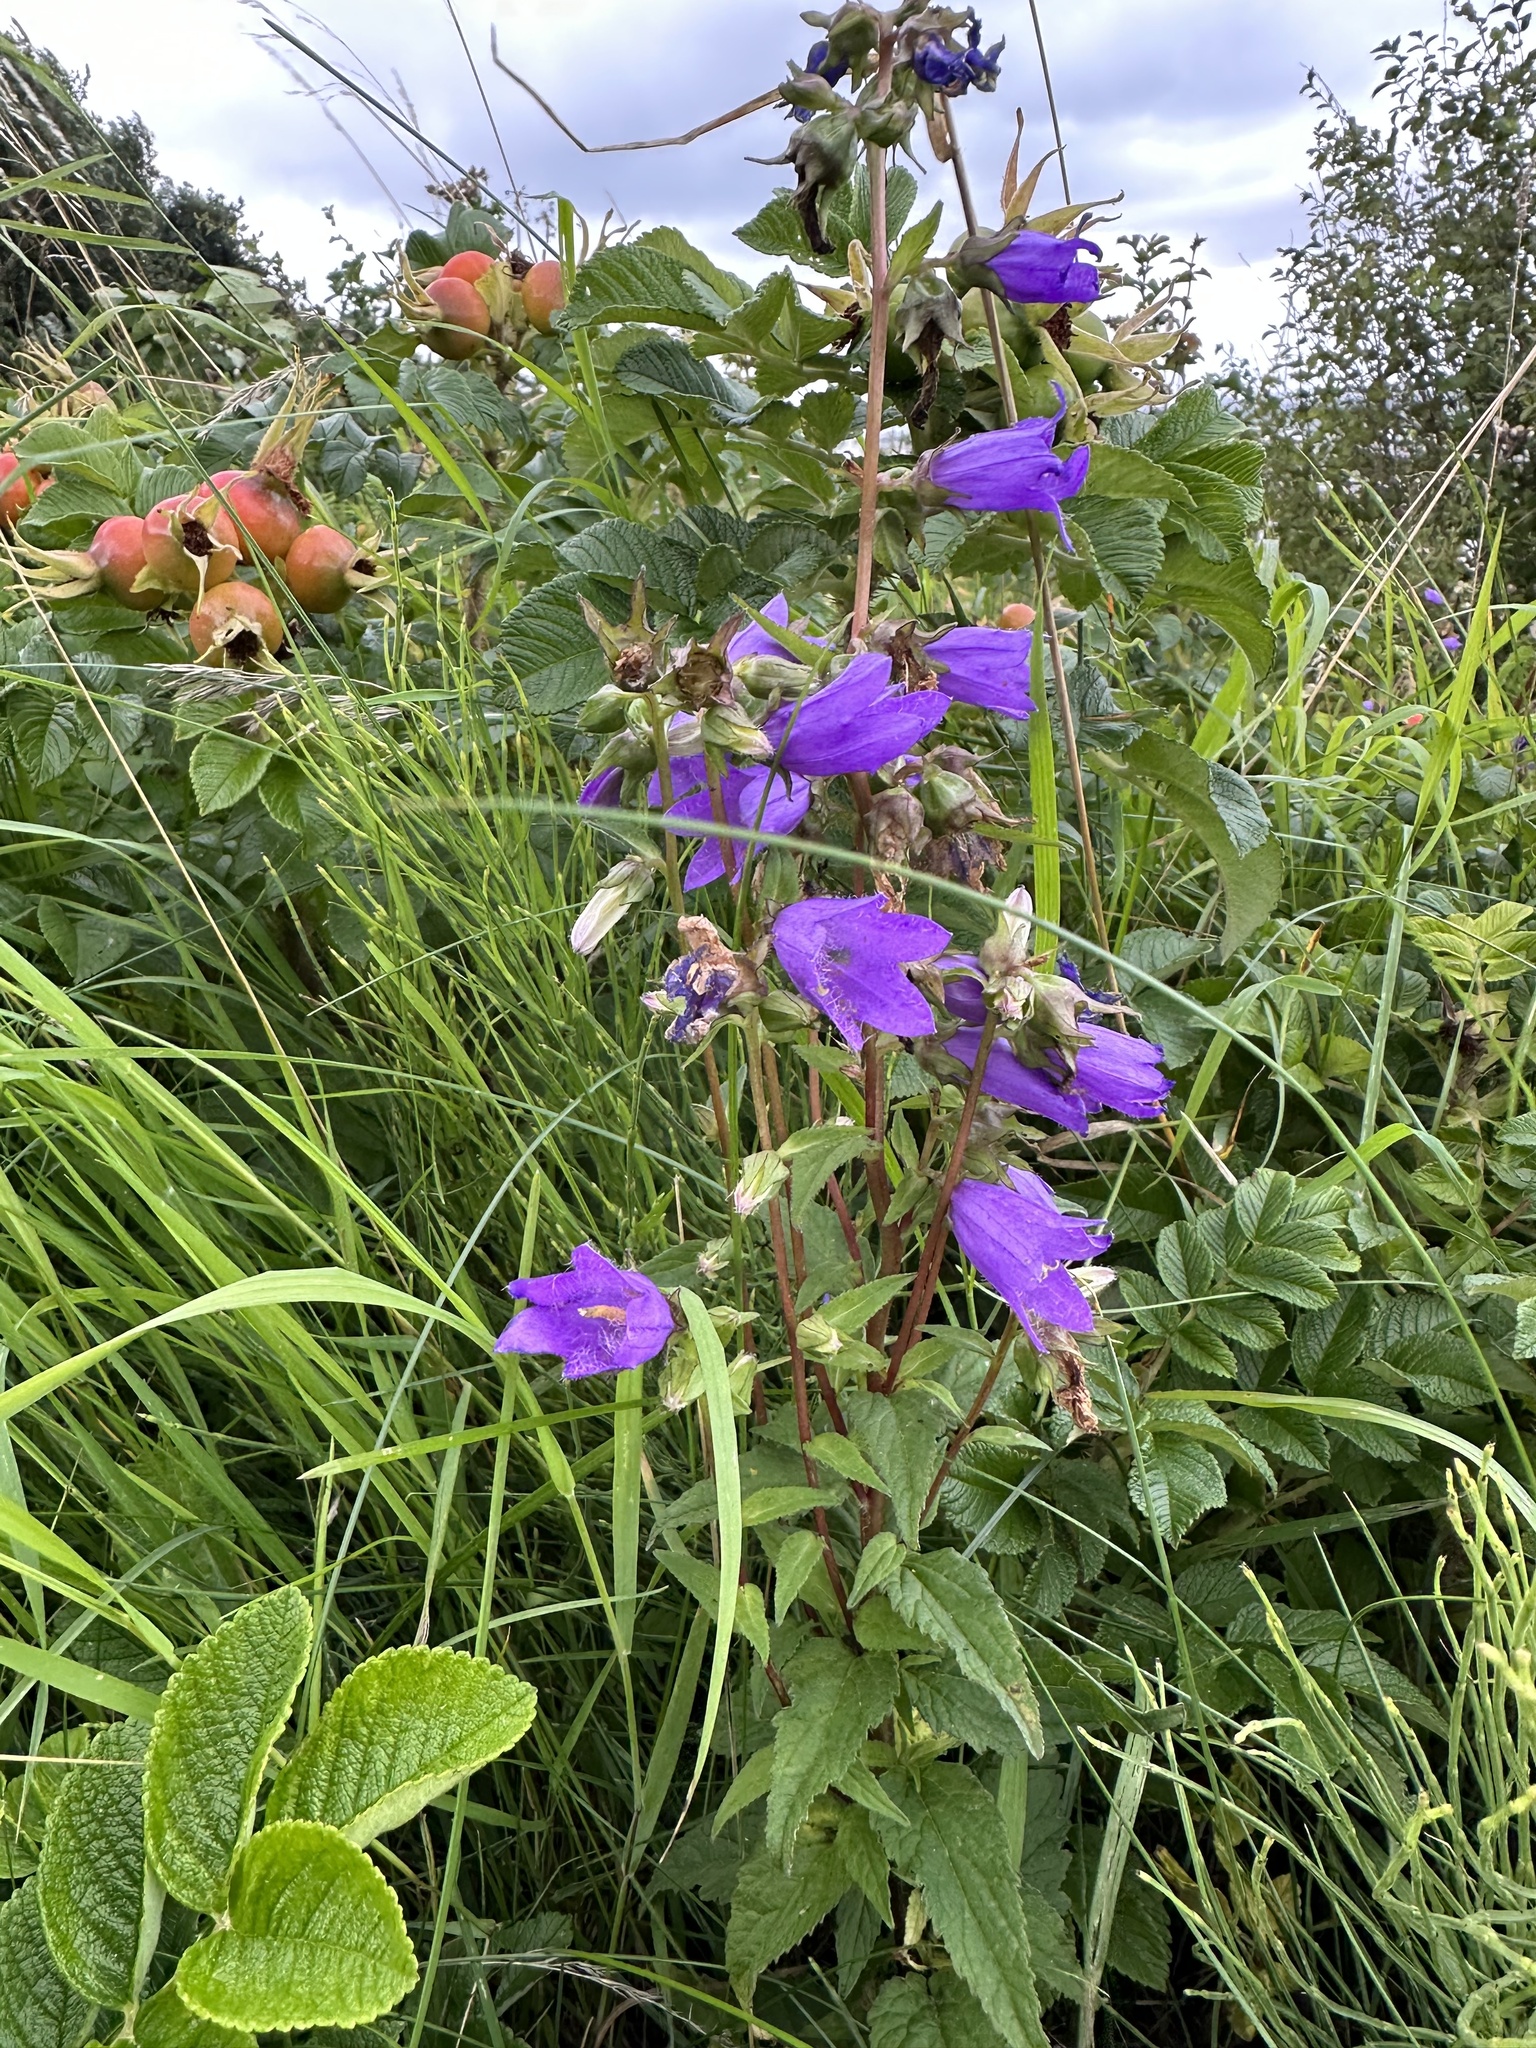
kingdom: Plantae
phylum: Tracheophyta
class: Magnoliopsida
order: Asterales
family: Campanulaceae
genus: Campanula
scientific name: Campanula trachelium
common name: Nettle-leaved bellflower
